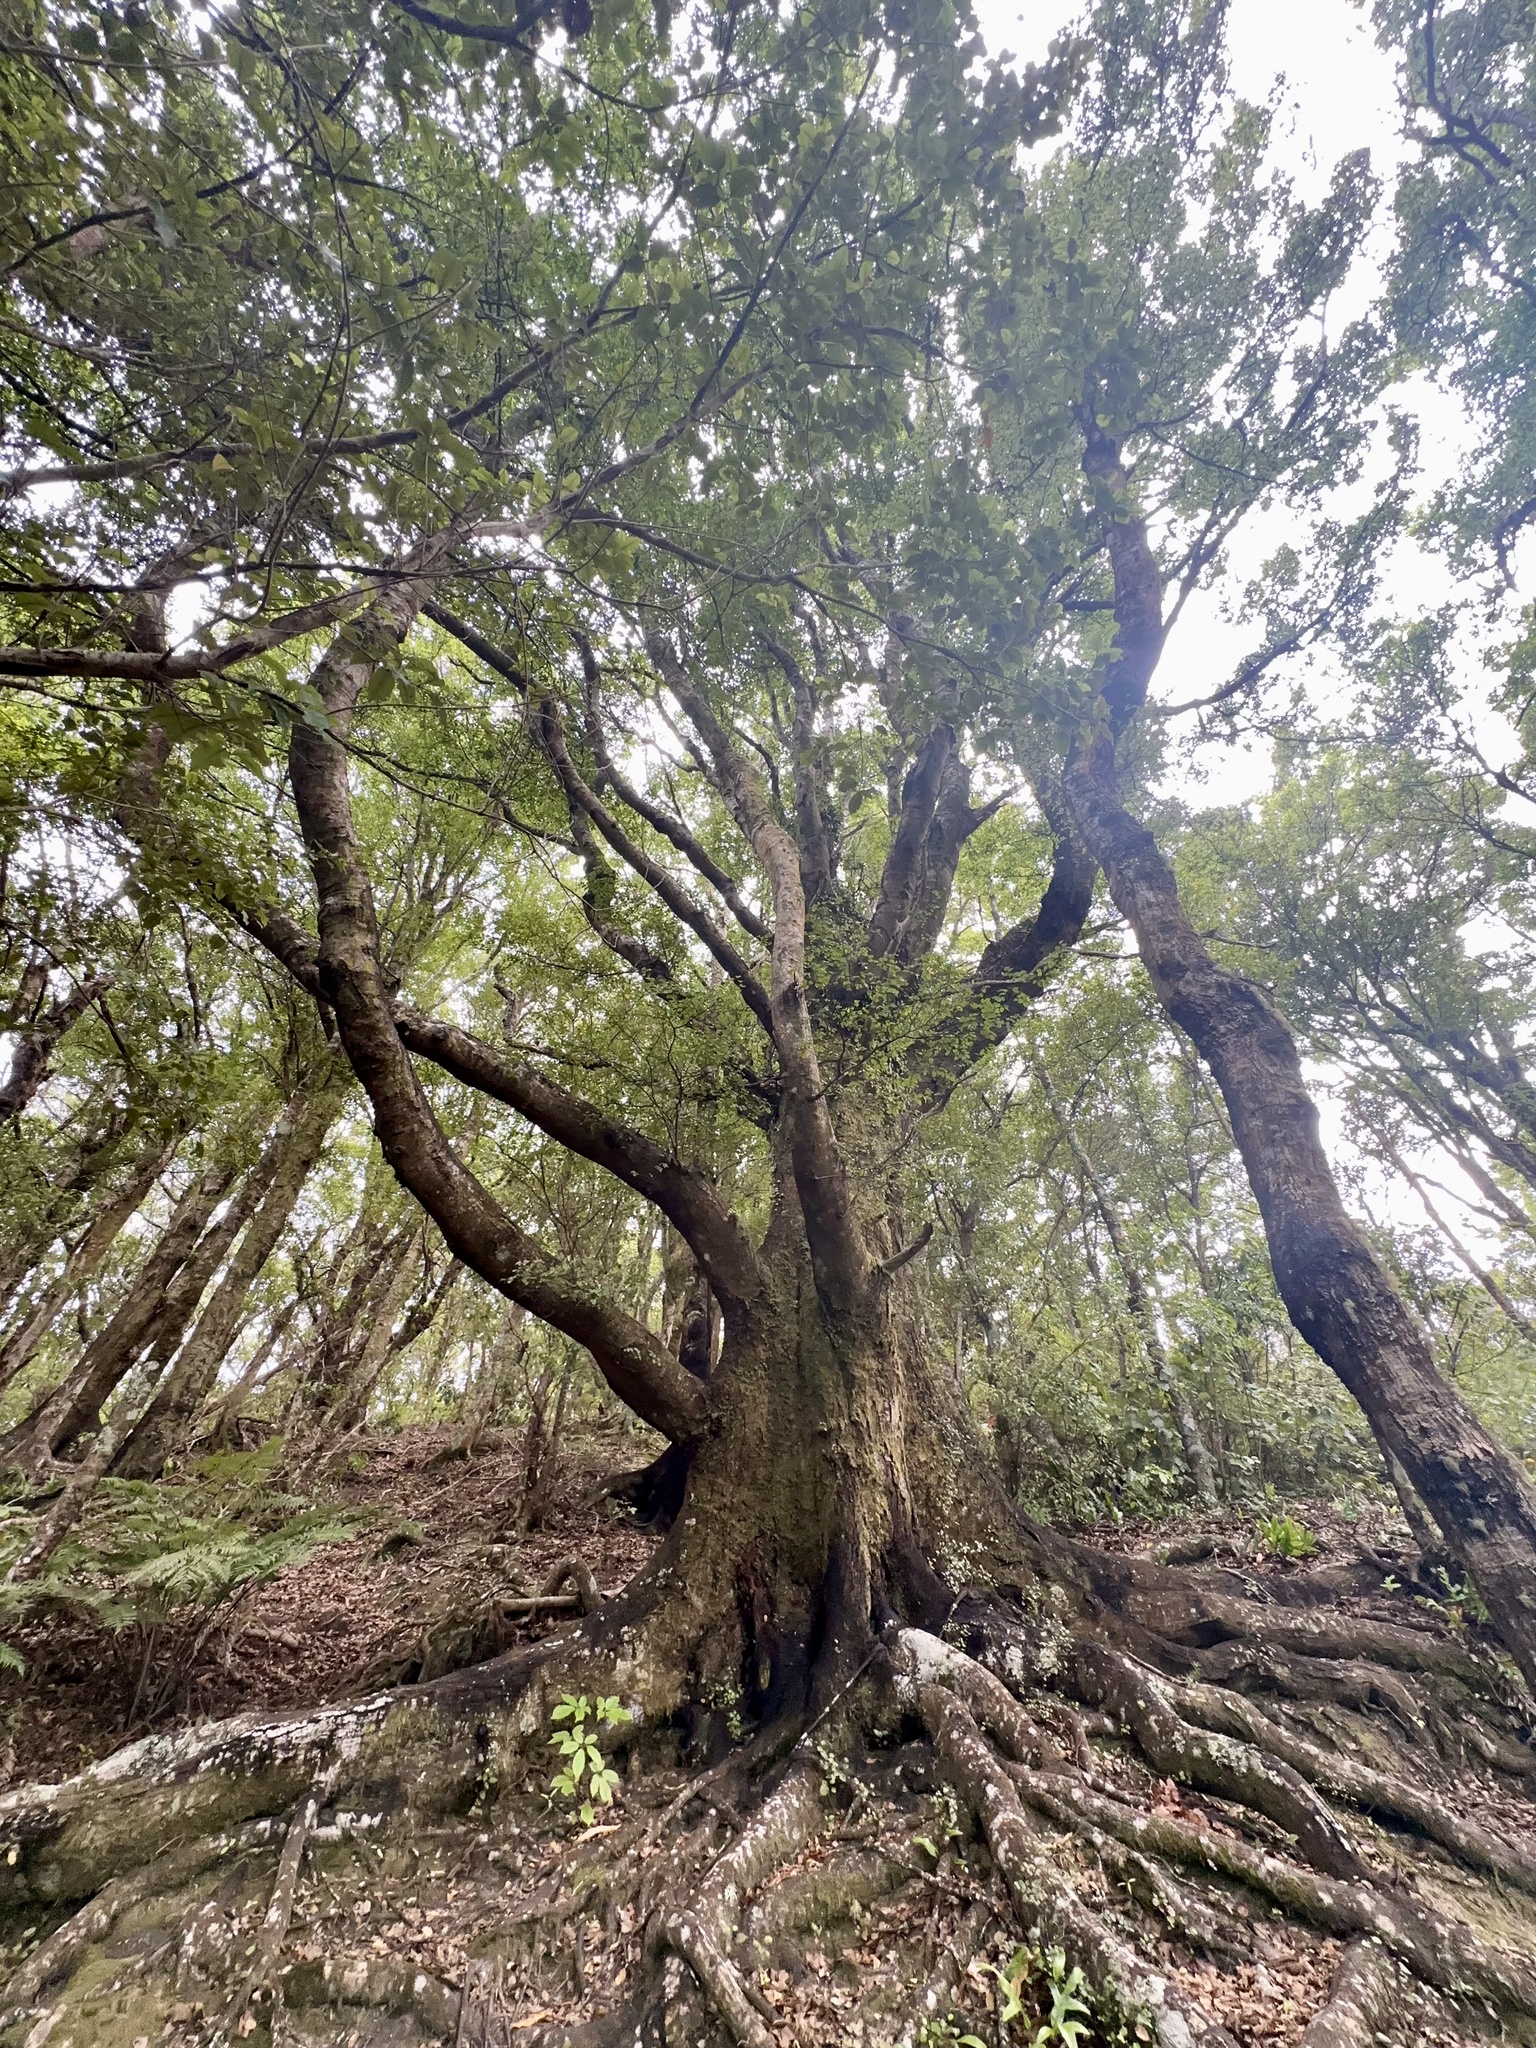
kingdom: Plantae
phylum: Tracheophyta
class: Magnoliopsida
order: Fagales
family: Nothofagaceae
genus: Nothofagus
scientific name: Nothofagus truncata
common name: Hard beech
